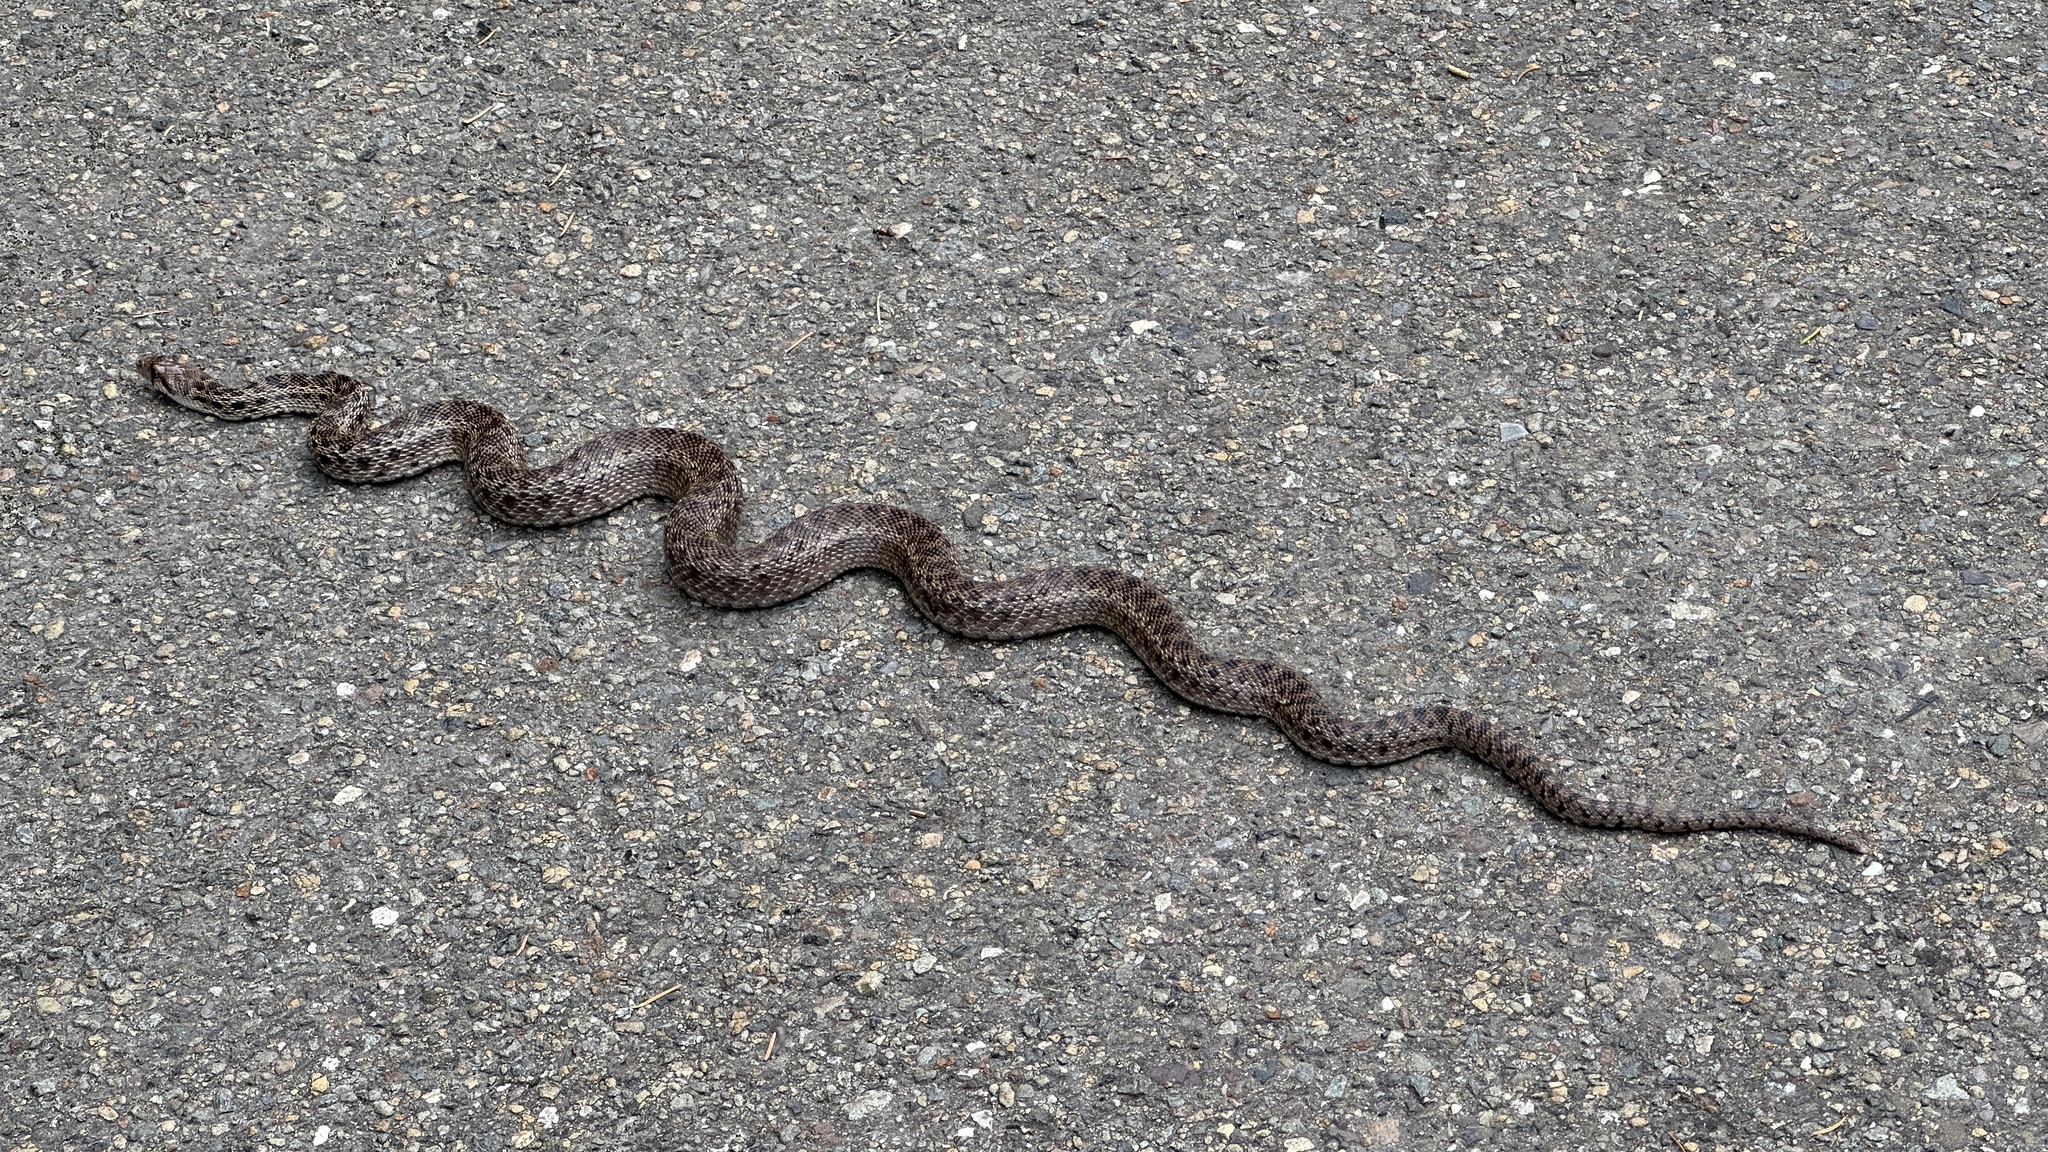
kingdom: Animalia
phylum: Chordata
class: Squamata
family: Colubridae
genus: Pituophis
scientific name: Pituophis catenifer
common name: Gopher snake
